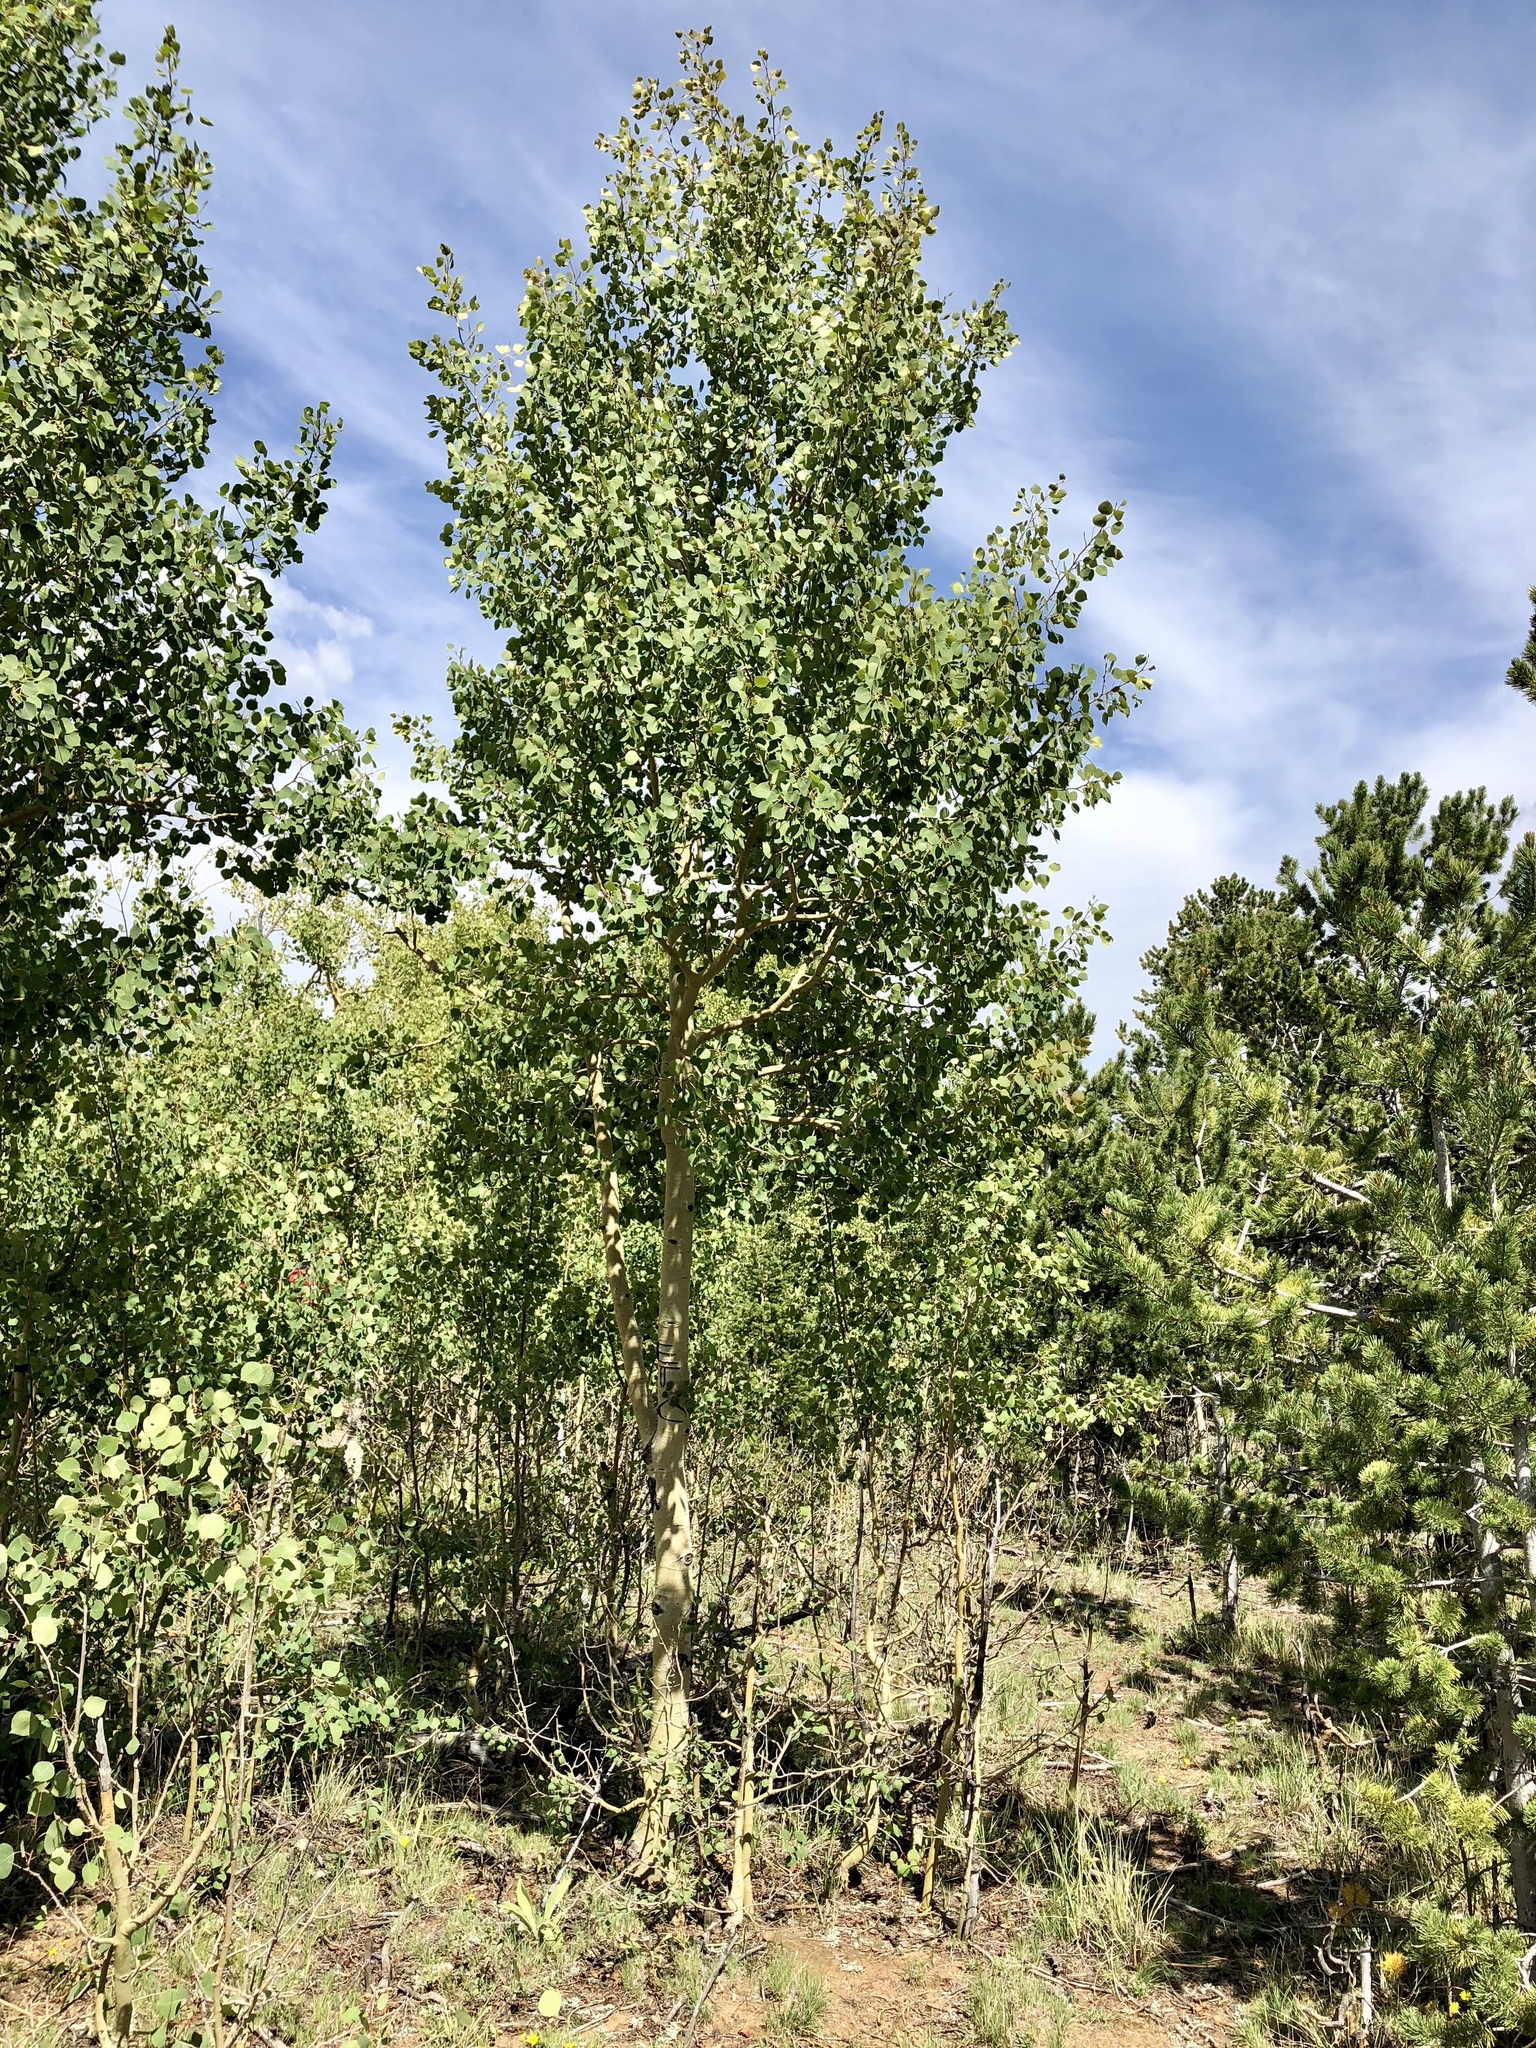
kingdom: Plantae
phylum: Tracheophyta
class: Magnoliopsida
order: Malpighiales
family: Salicaceae
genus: Populus
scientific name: Populus tremuloides
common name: Quaking aspen
